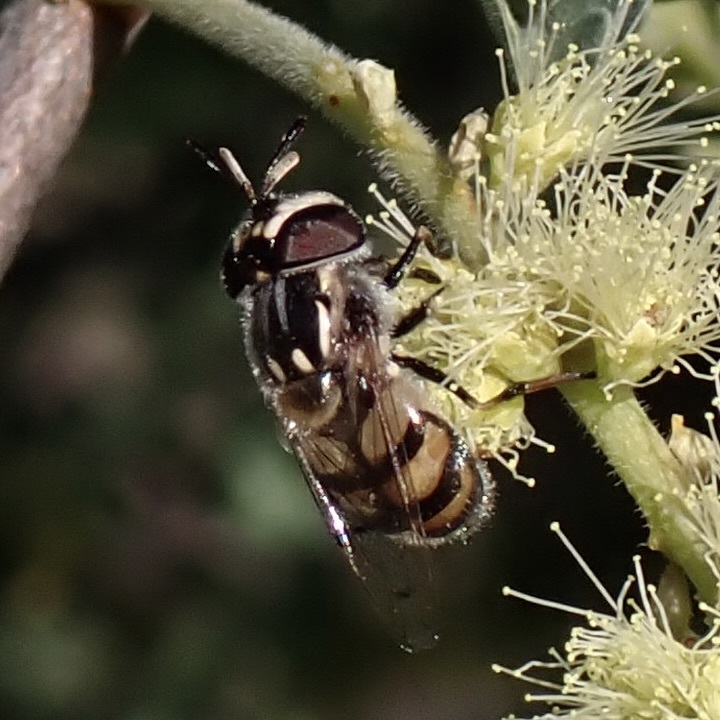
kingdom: Animalia
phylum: Arthropoda
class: Insecta
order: Diptera
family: Syrphidae
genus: Copestylum
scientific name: Copestylum marginatum
